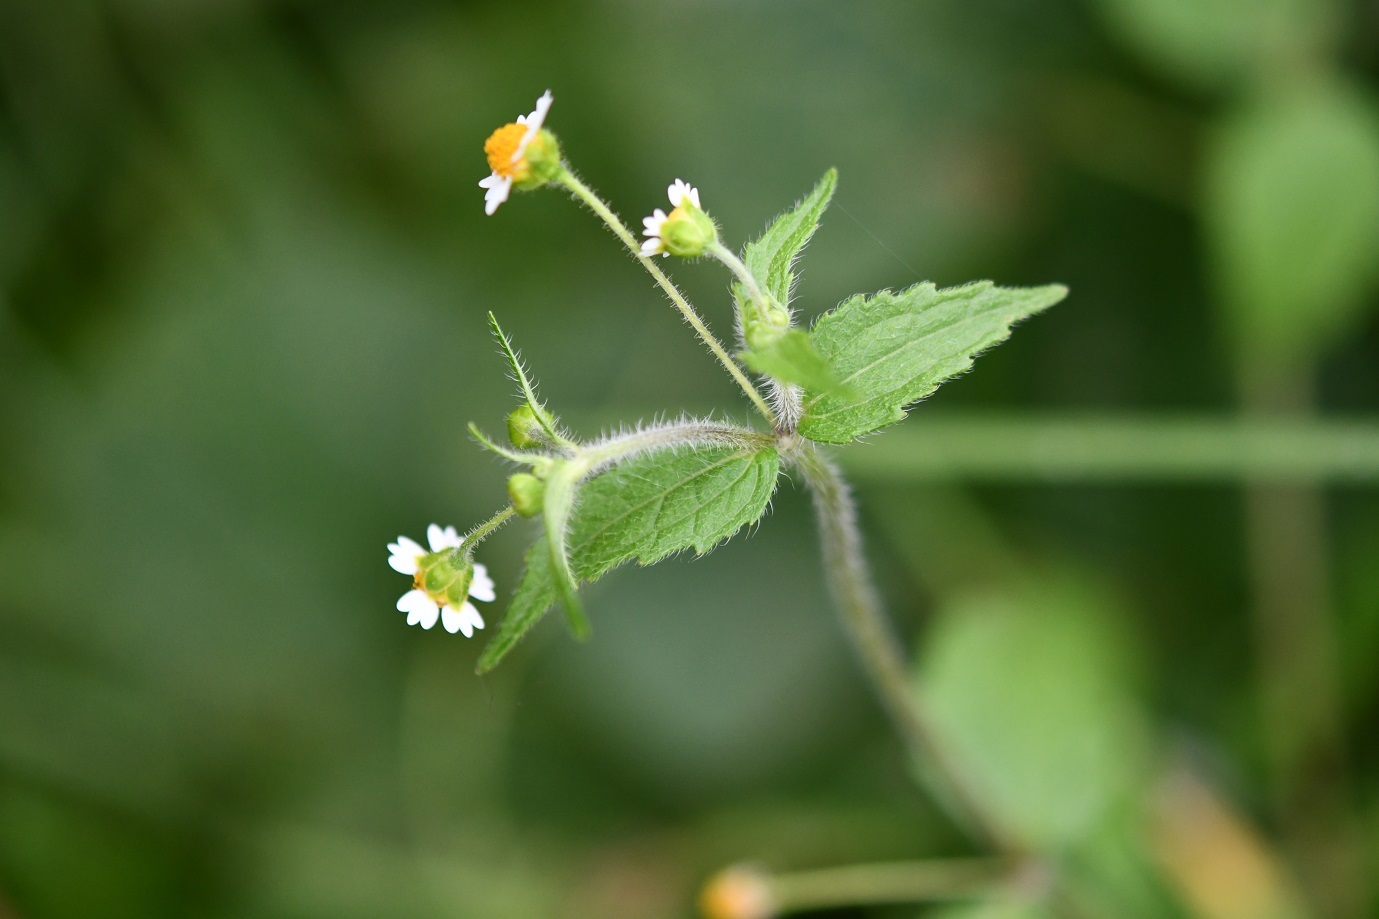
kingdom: Plantae
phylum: Tracheophyta
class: Magnoliopsida
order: Asterales
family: Asteraceae
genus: Galinsoga
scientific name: Galinsoga quadriradiata
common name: Shaggy soldier
